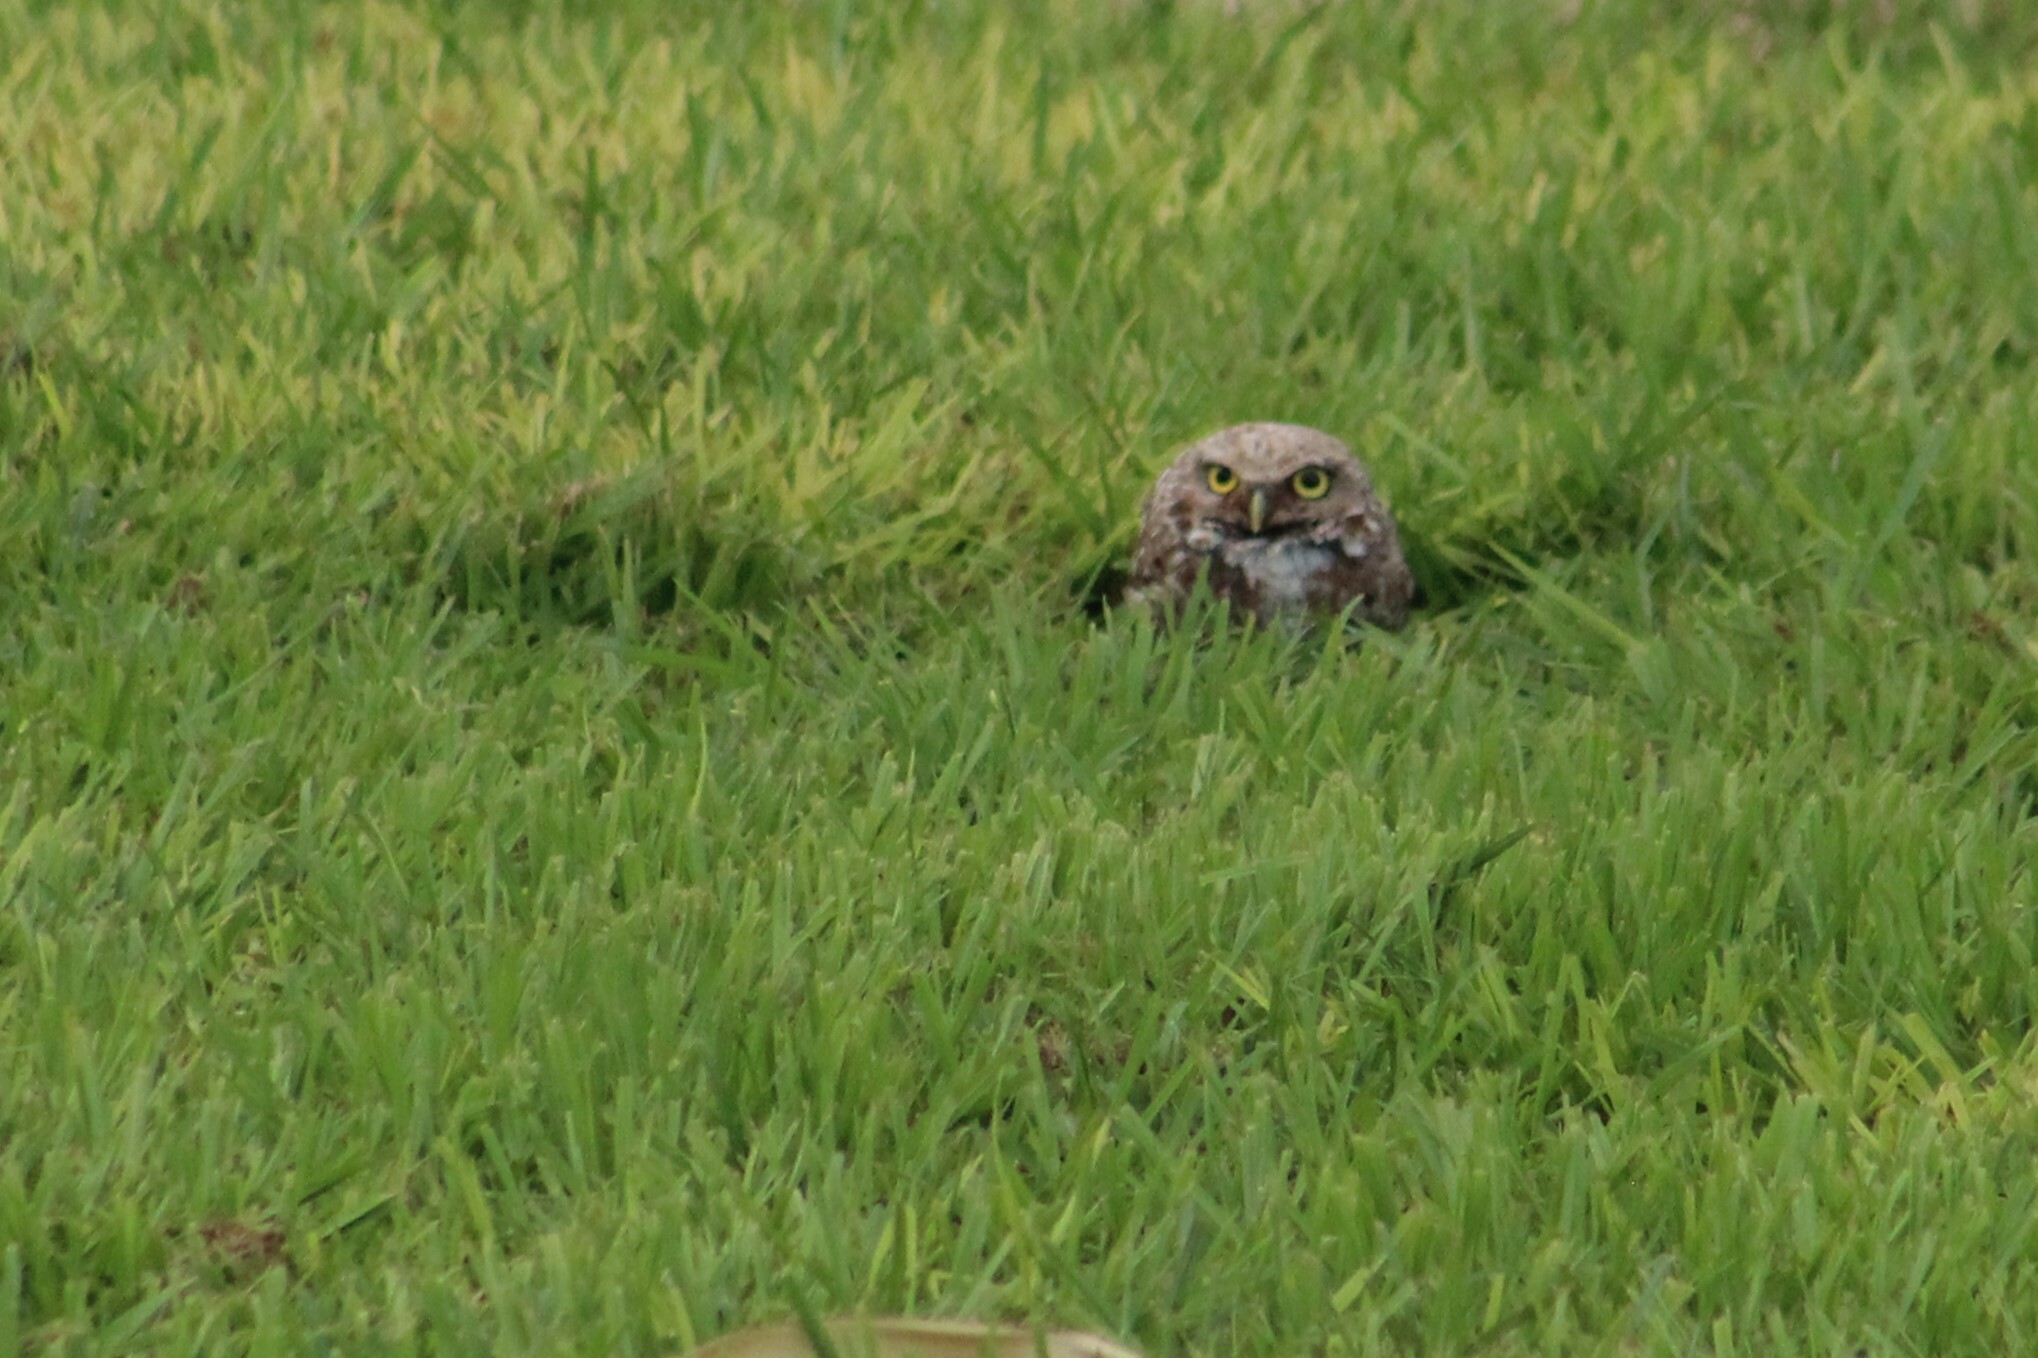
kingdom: Animalia
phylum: Chordata
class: Aves
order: Strigiformes
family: Strigidae
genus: Athene
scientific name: Athene cunicularia
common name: Burrowing owl
